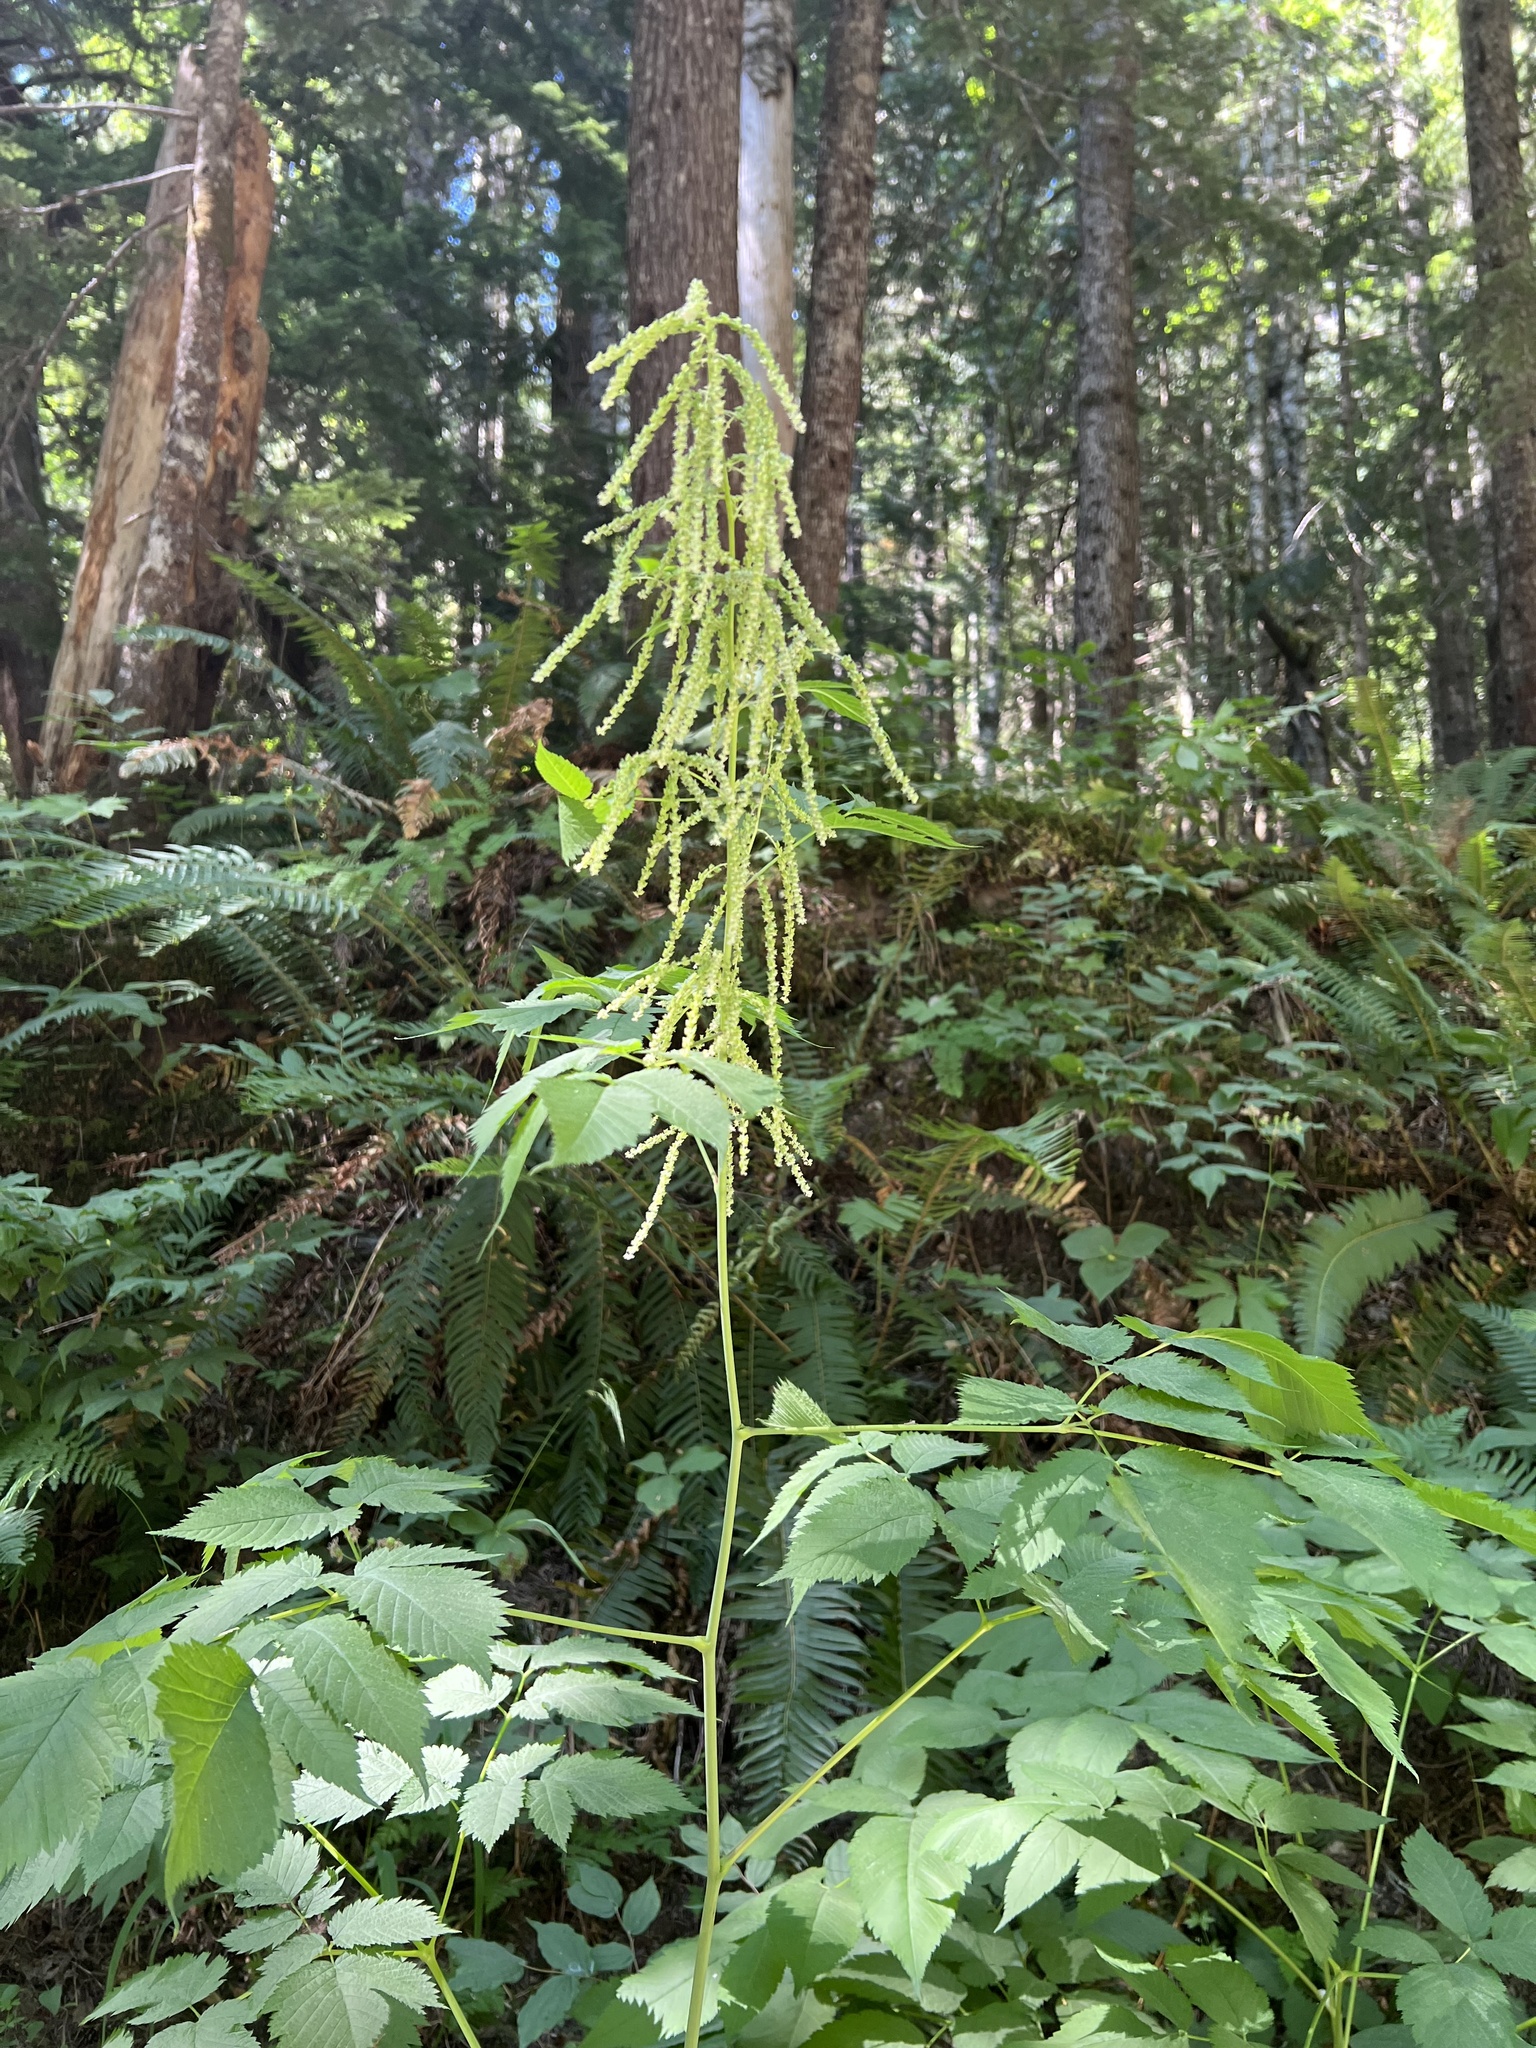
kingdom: Plantae
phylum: Tracheophyta
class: Magnoliopsida
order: Rosales
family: Rosaceae
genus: Aruncus
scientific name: Aruncus dioicus
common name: Buck's-beard
